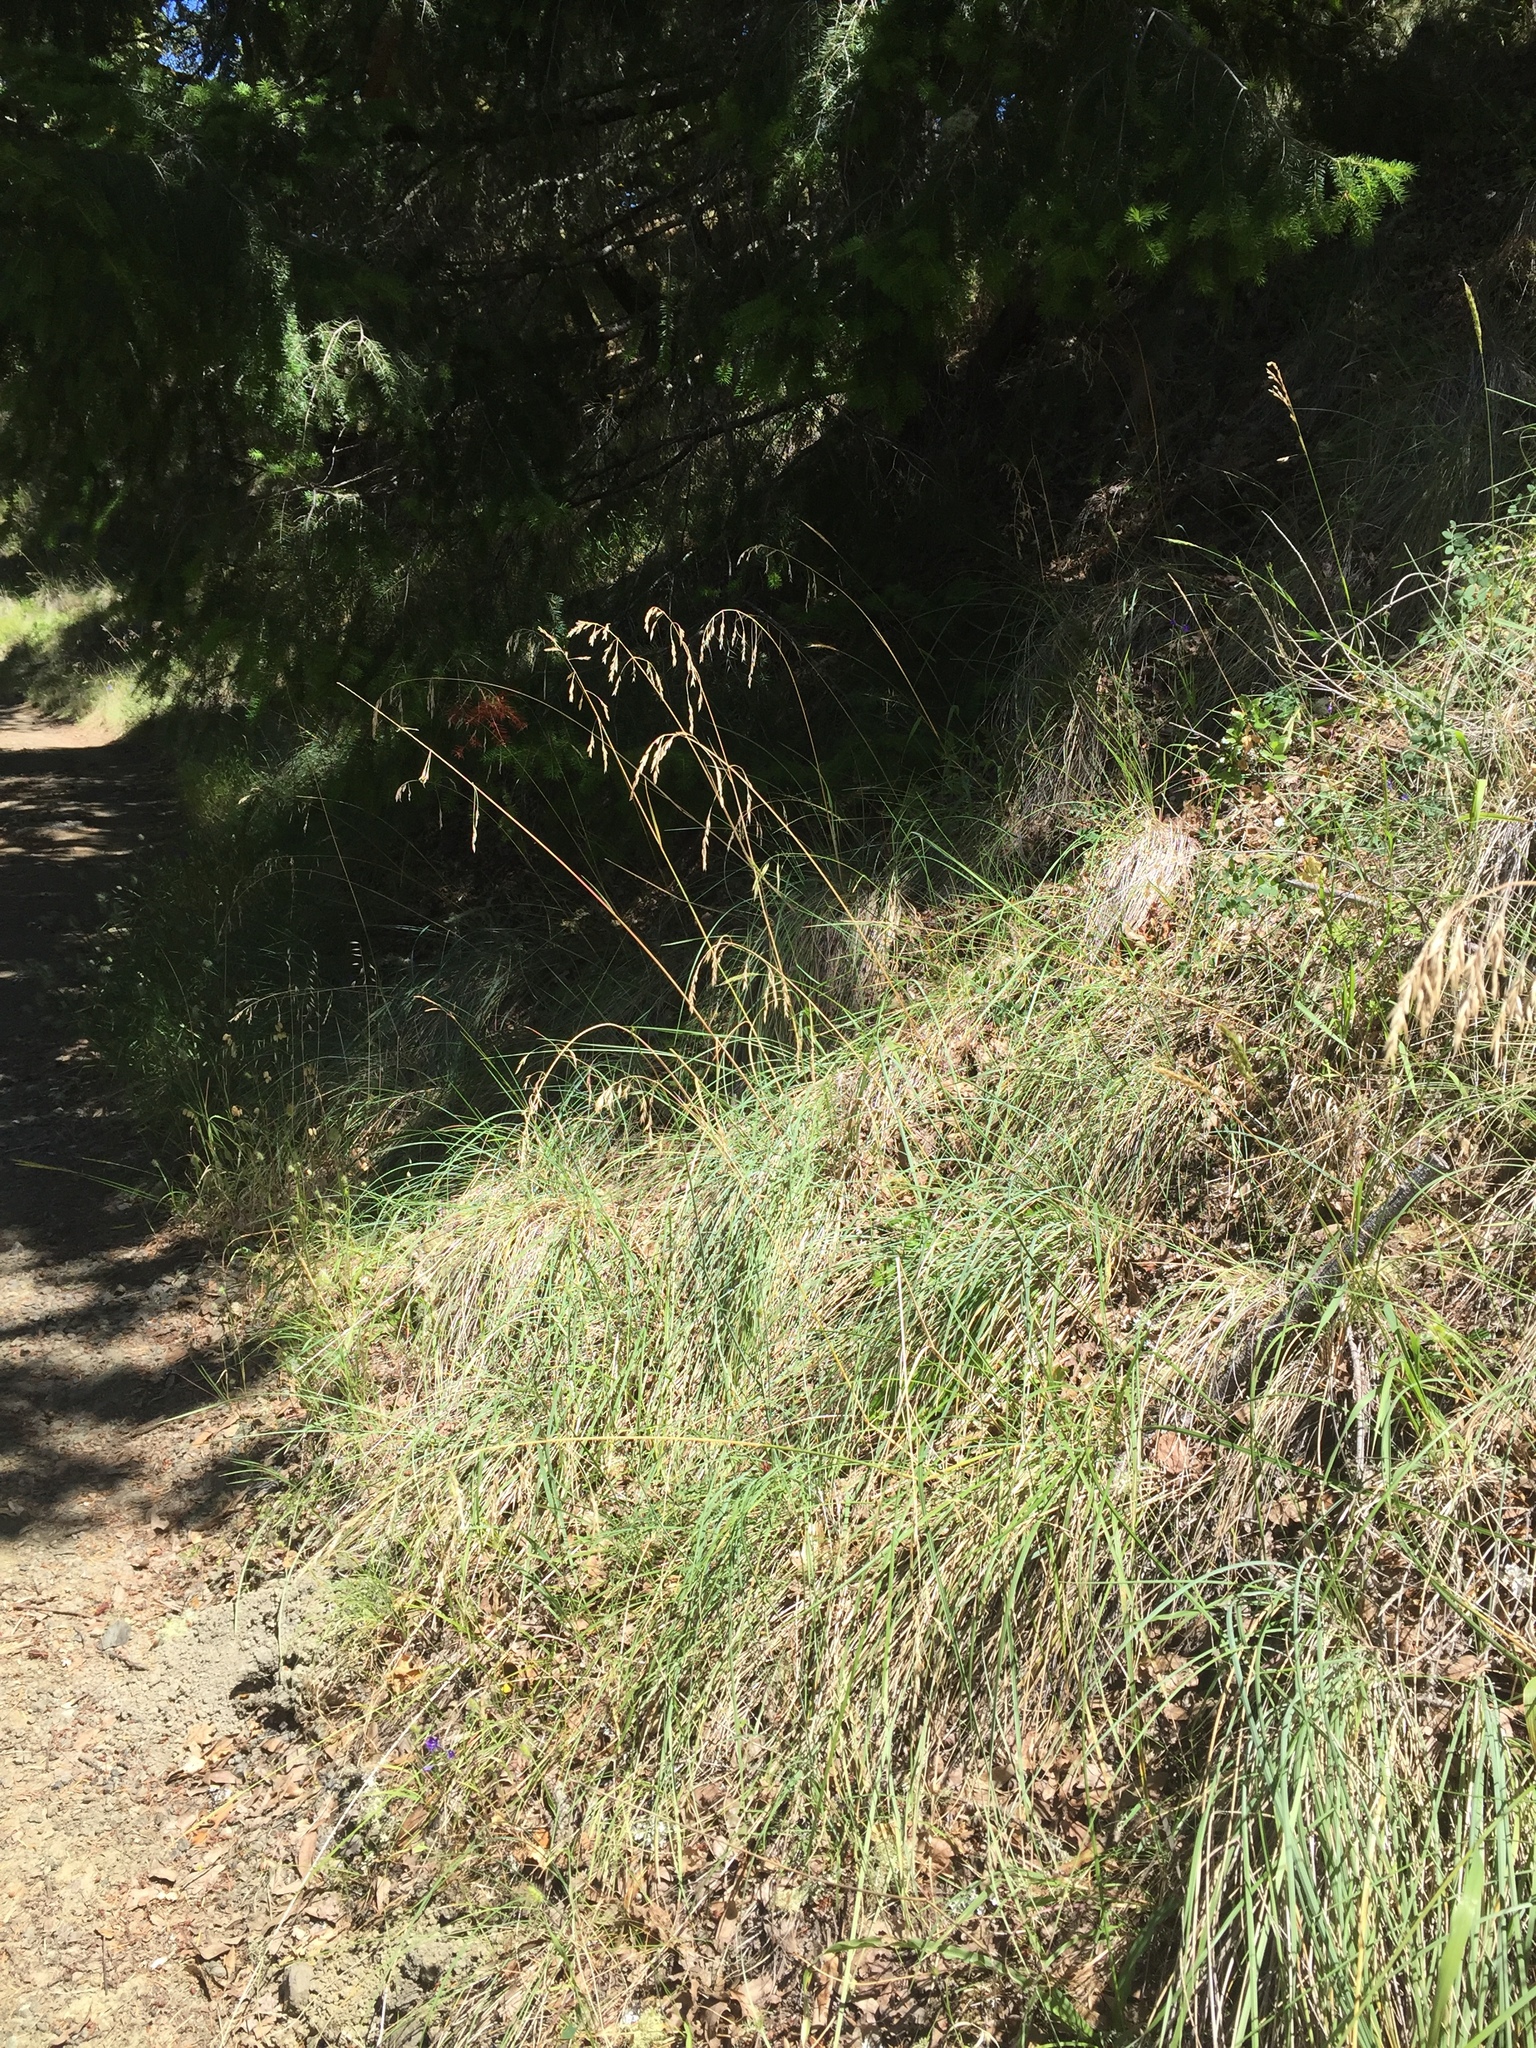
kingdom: Plantae
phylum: Tracheophyta
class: Liliopsida
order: Poales
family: Poaceae
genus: Festuca
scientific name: Festuca californica
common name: California fescue
